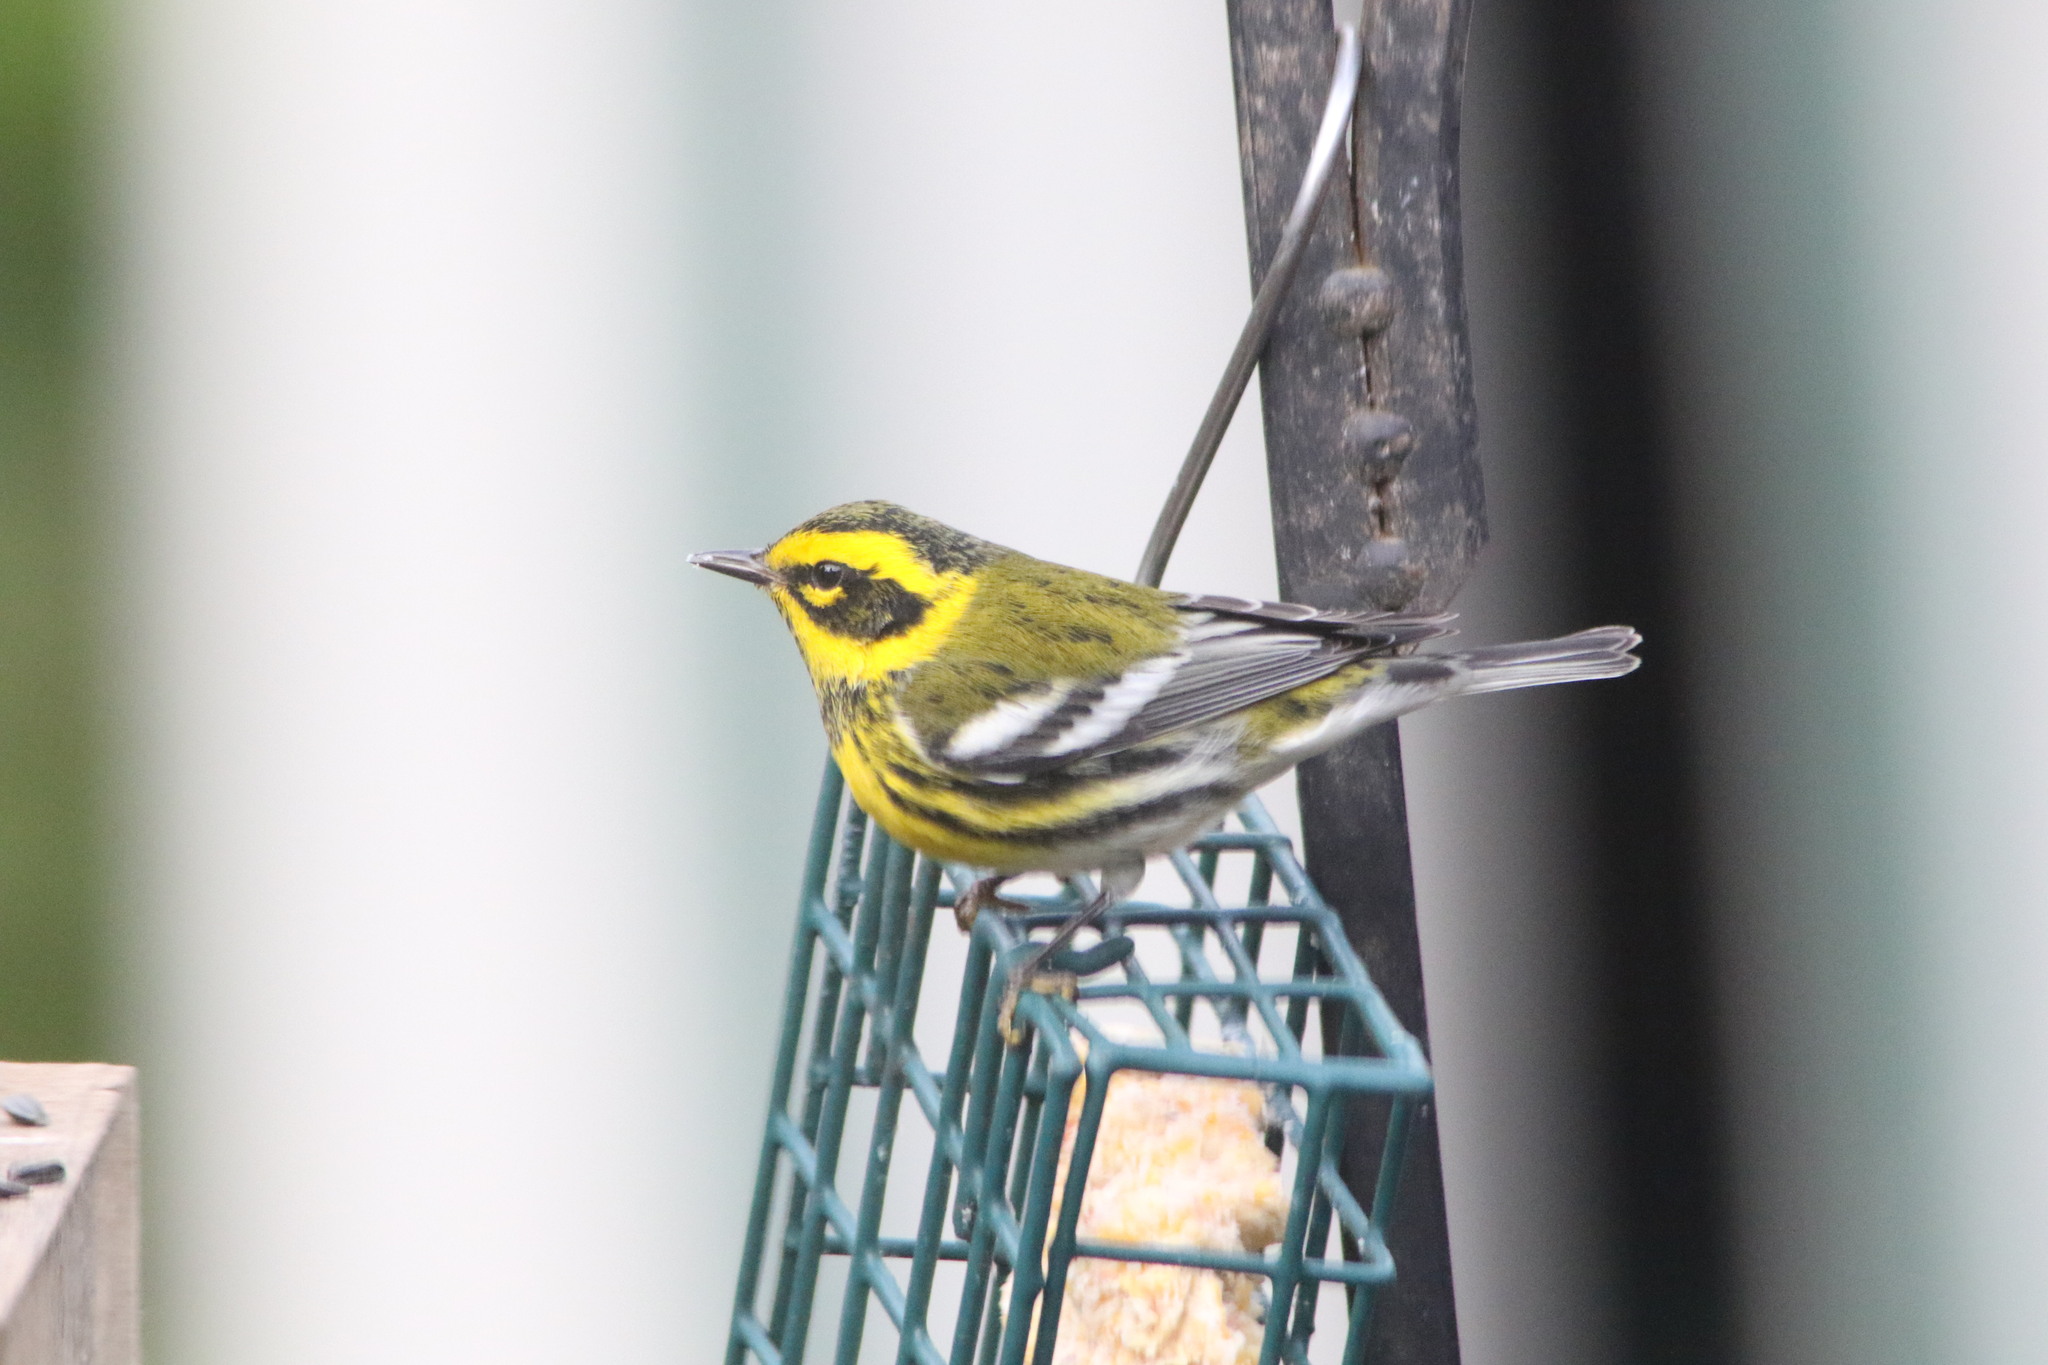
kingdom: Animalia
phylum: Chordata
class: Aves
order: Passeriformes
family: Parulidae
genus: Setophaga
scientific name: Setophaga townsendi
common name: Townsend's warbler
